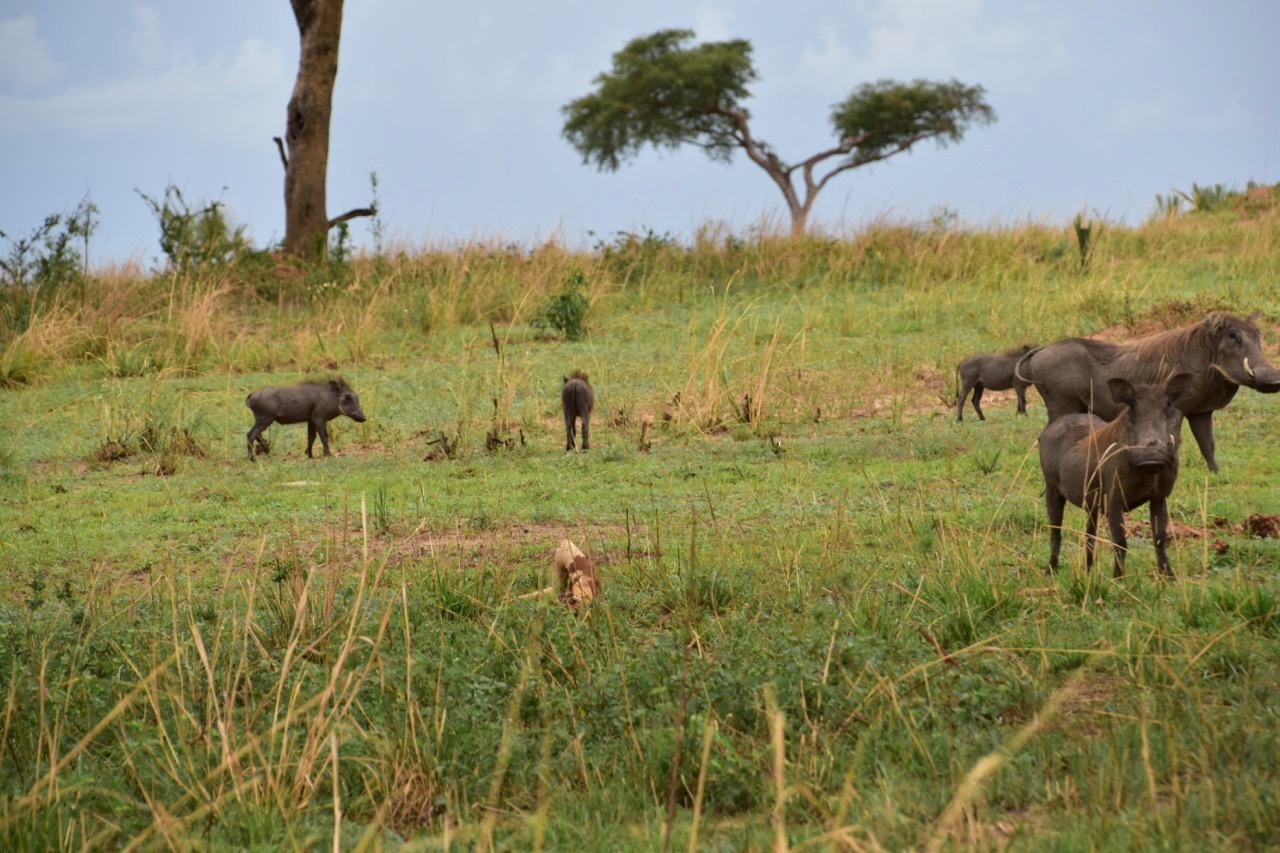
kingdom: Animalia
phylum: Chordata
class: Mammalia
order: Artiodactyla
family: Suidae
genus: Phacochoerus
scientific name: Phacochoerus africanus
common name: Common warthog
